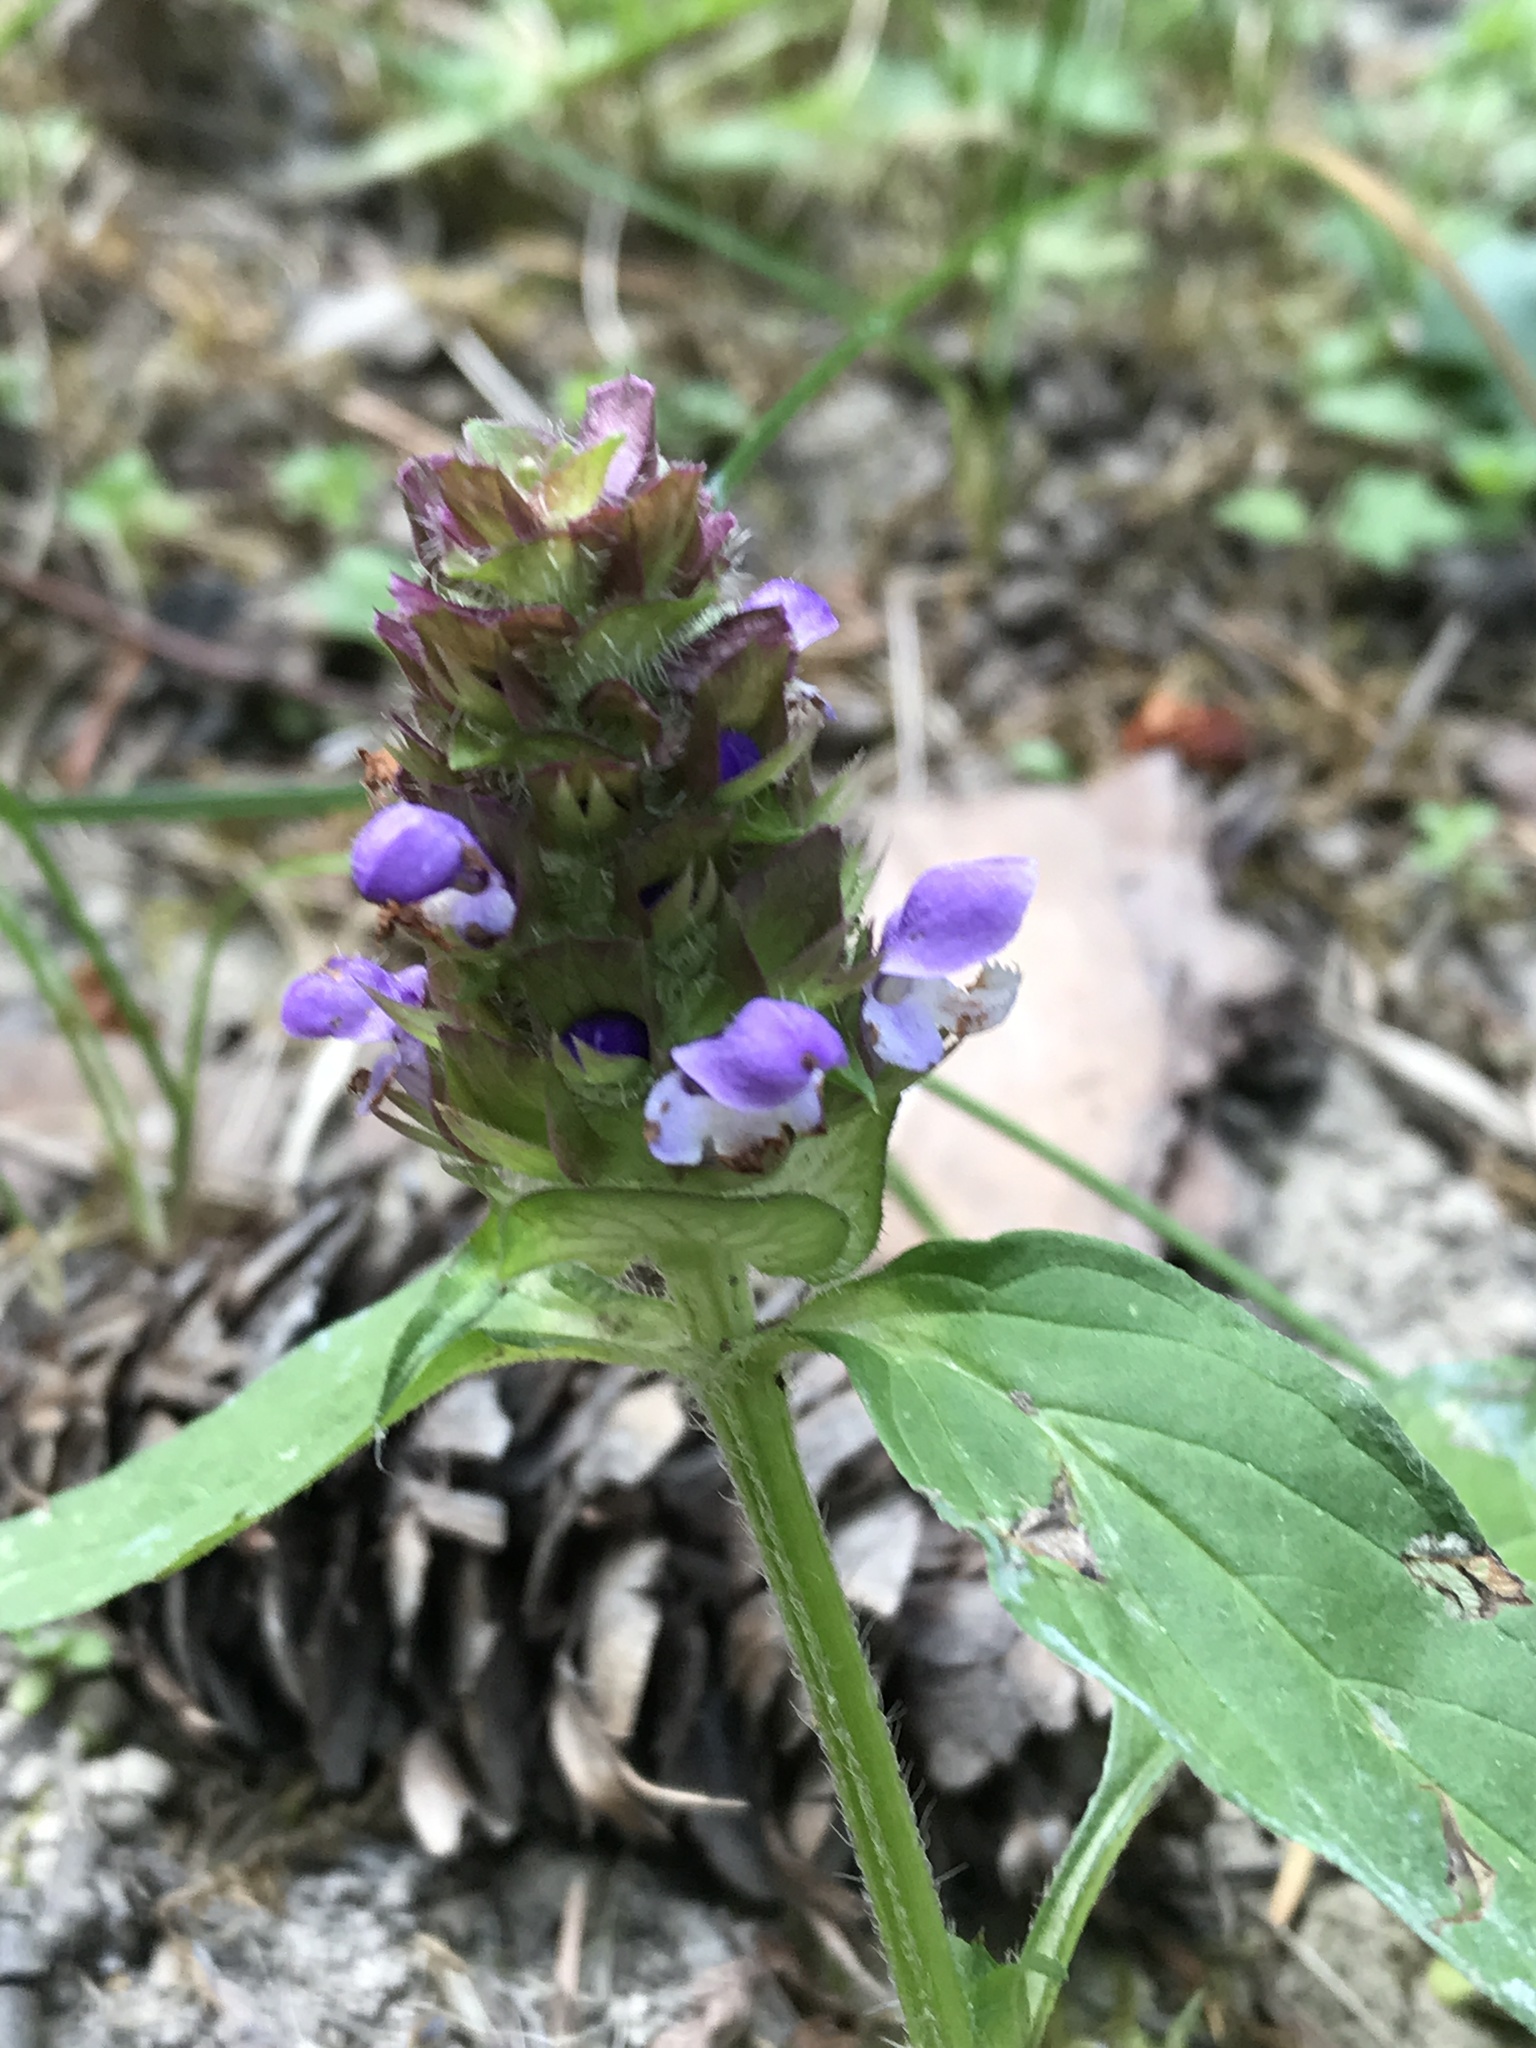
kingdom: Plantae
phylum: Tracheophyta
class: Magnoliopsida
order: Lamiales
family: Lamiaceae
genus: Prunella
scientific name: Prunella vulgaris
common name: Heal-all
